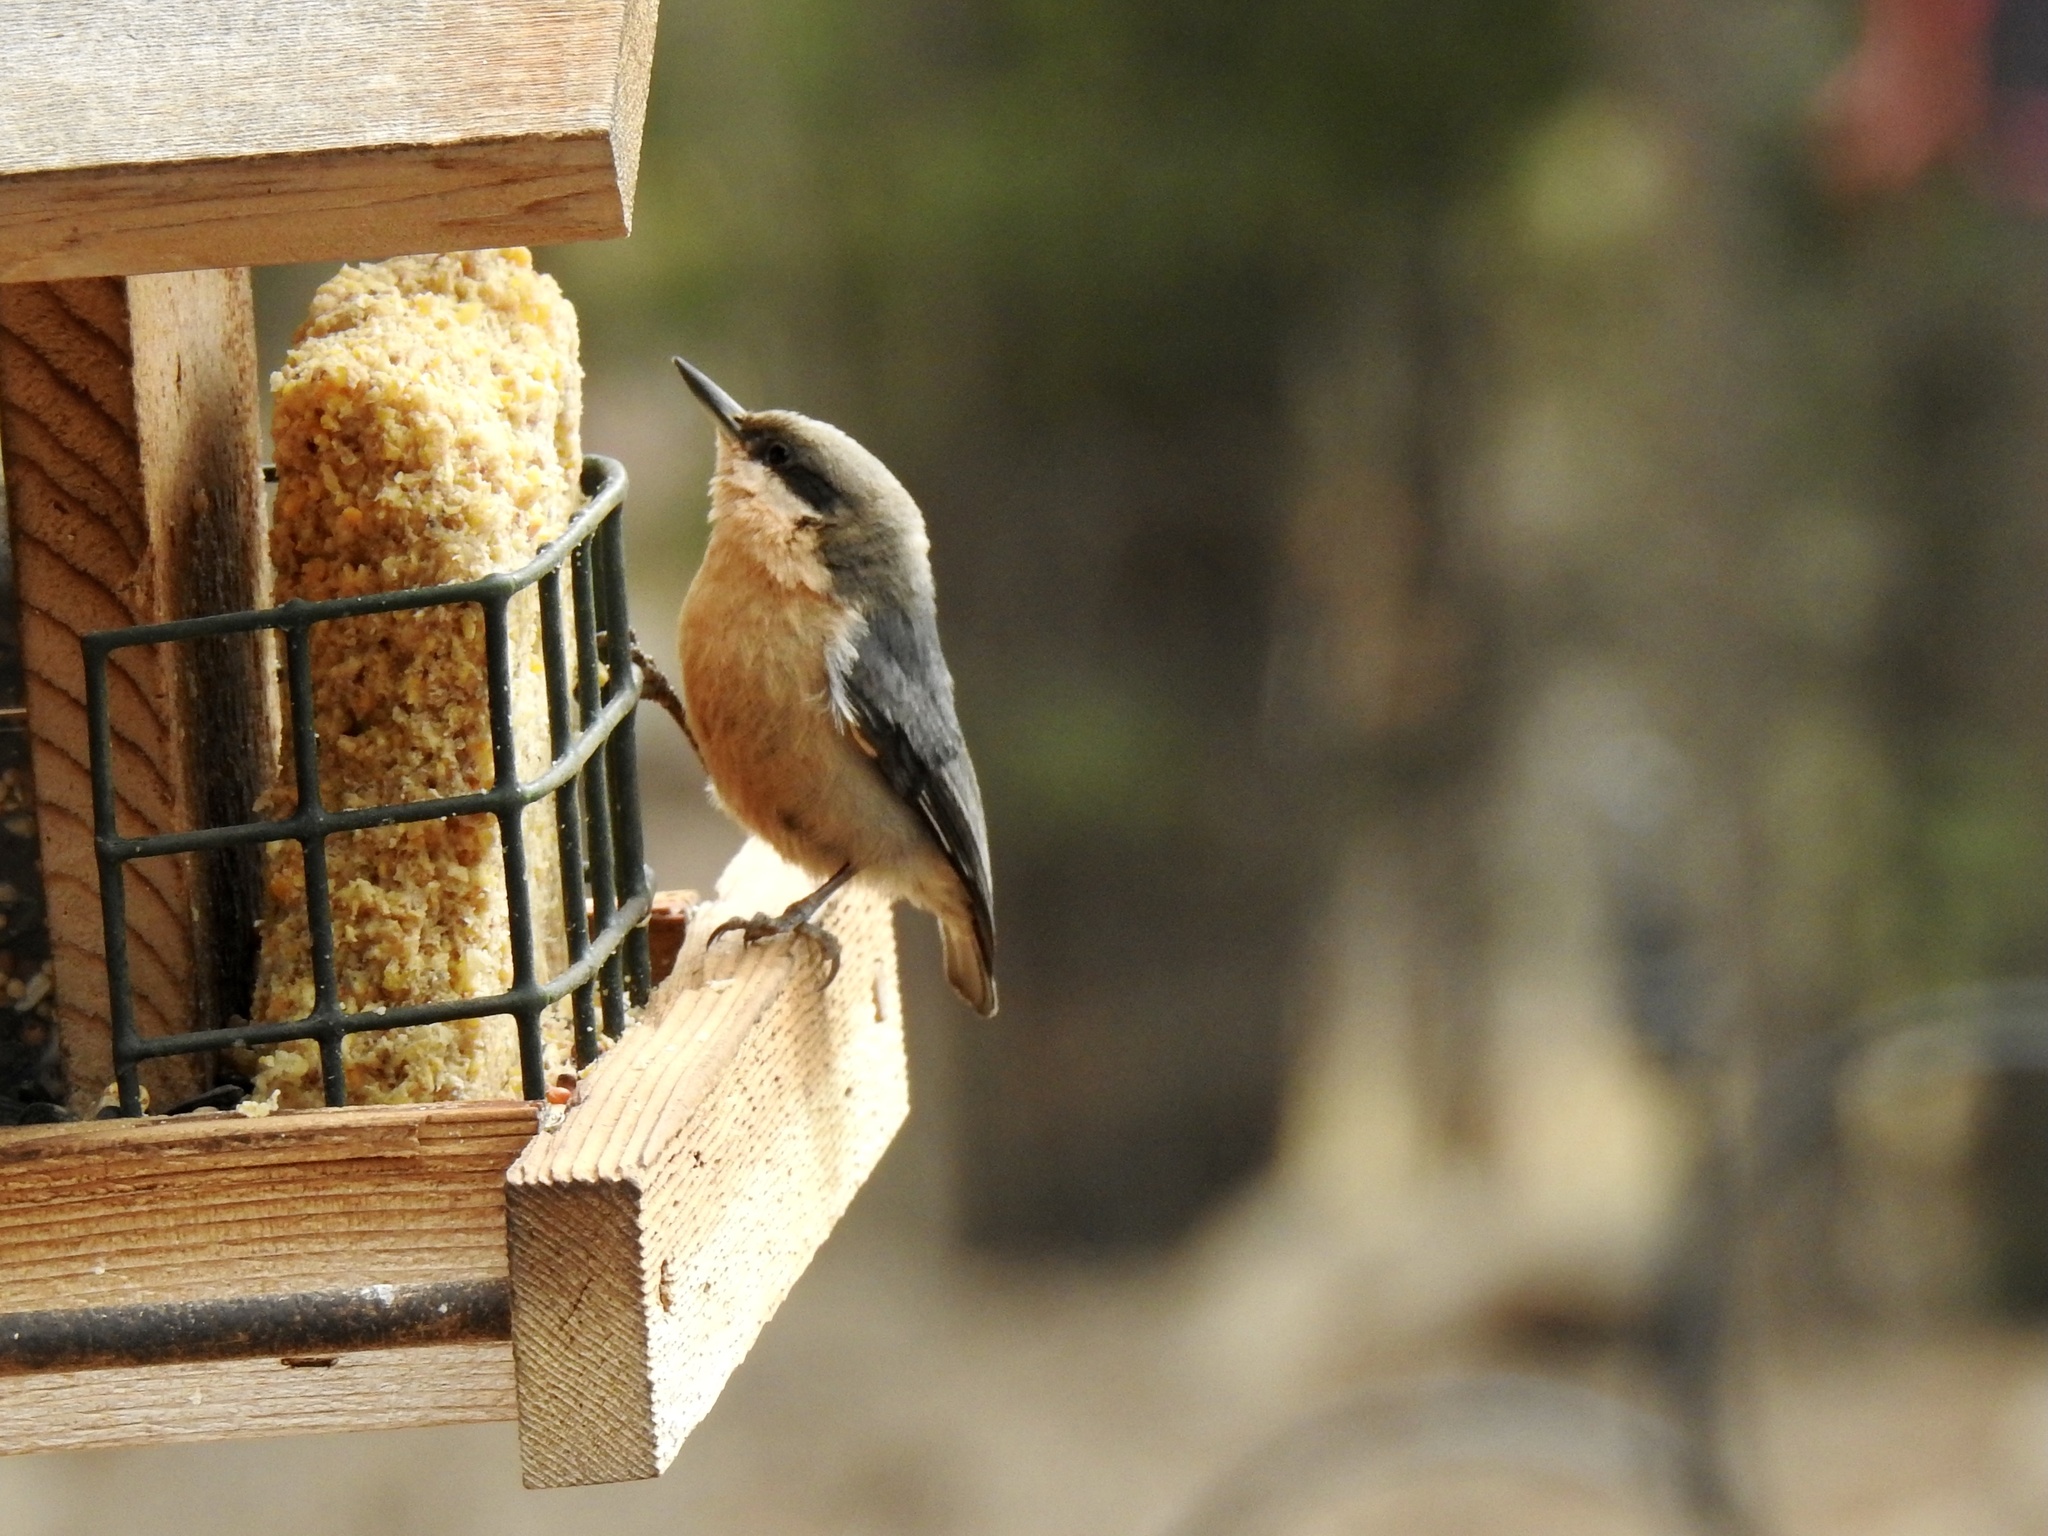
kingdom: Animalia
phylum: Chordata
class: Aves
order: Passeriformes
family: Sittidae
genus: Sitta
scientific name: Sitta pygmaea
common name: Pygmy nuthatch
